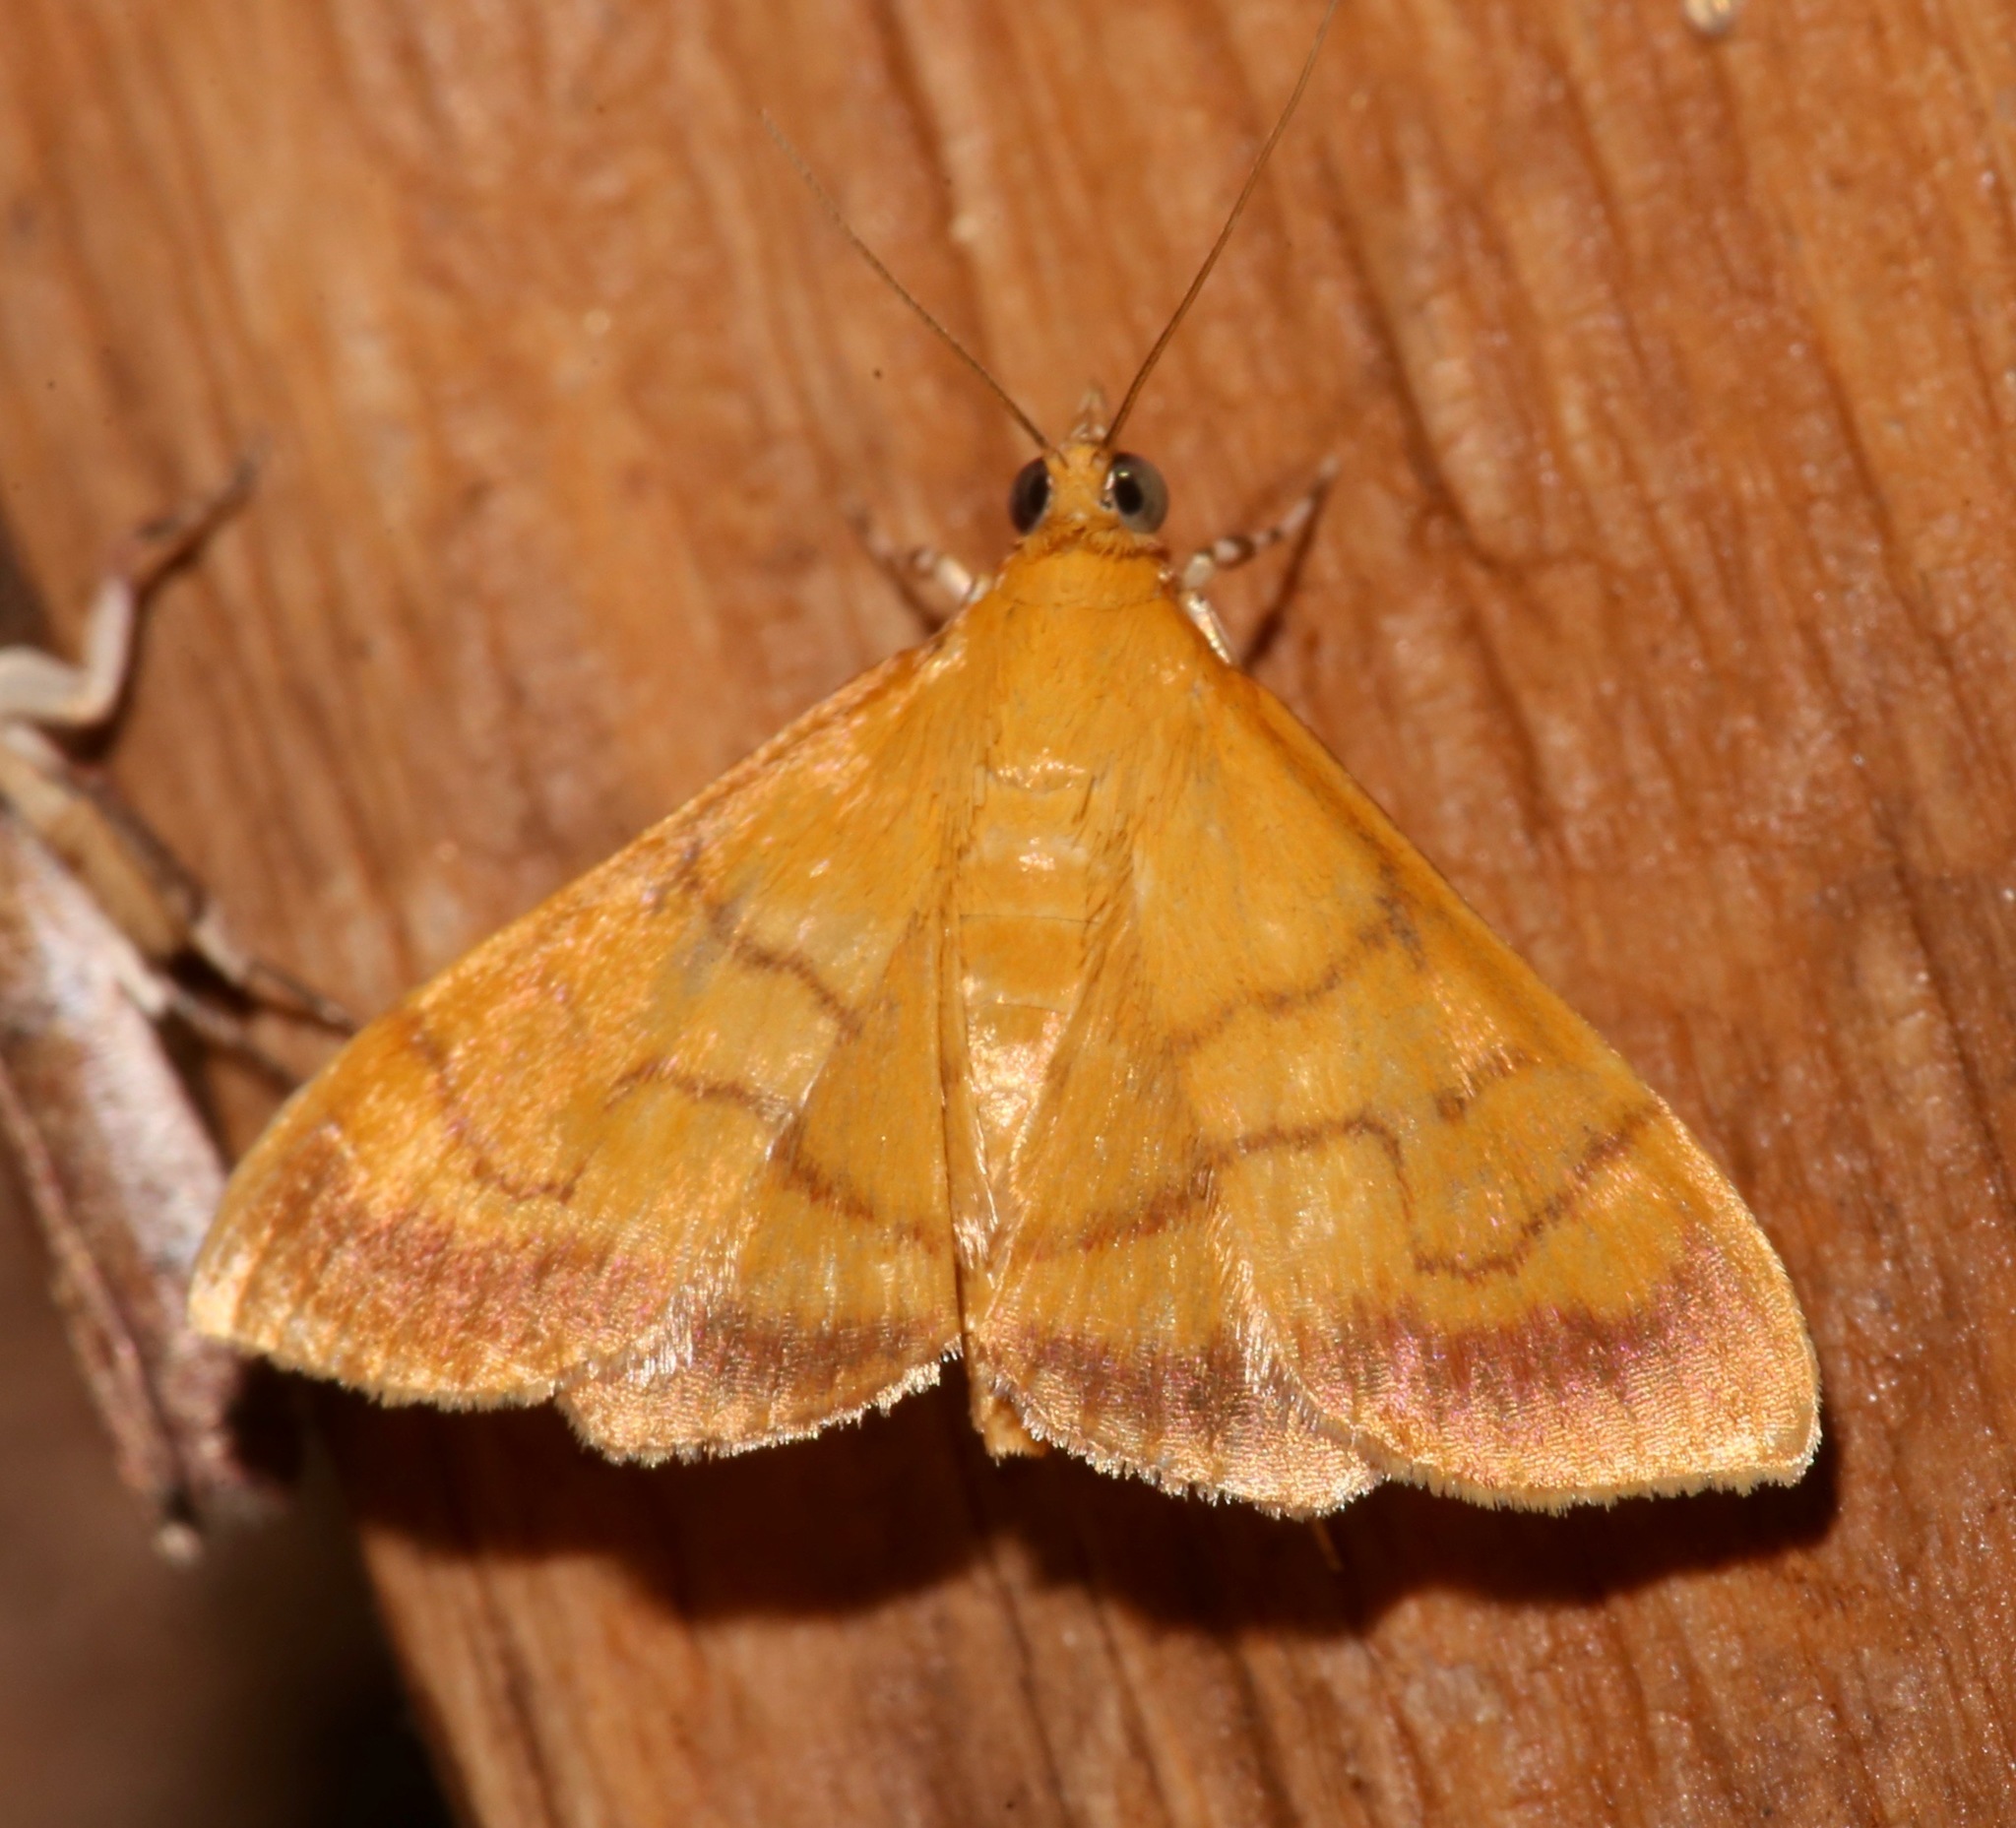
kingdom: Animalia
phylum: Arthropoda
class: Insecta
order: Lepidoptera
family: Crambidae
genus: Pyrausta
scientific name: Pyrausta insignitalis
